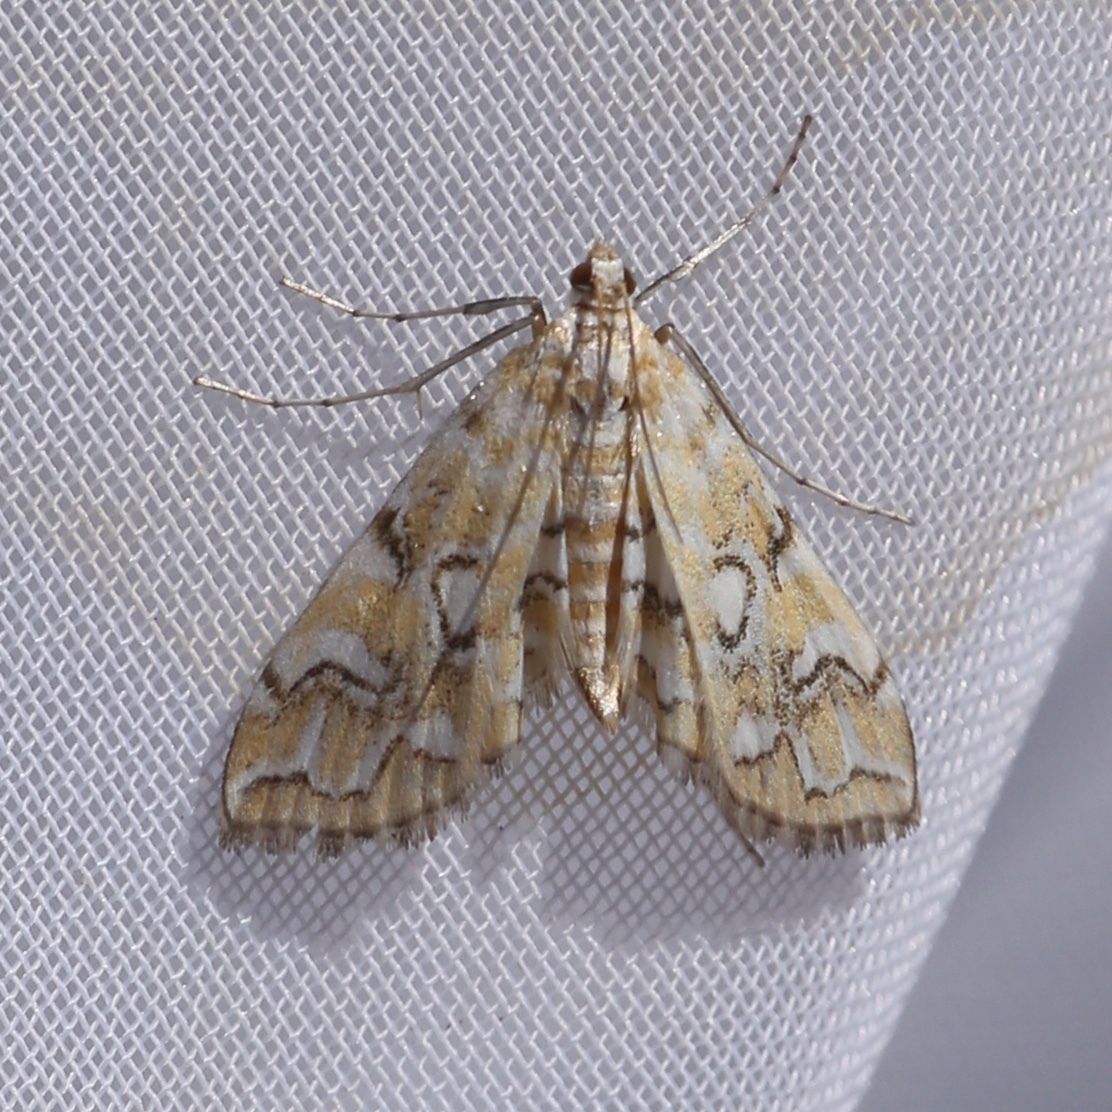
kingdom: Animalia
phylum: Arthropoda
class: Insecta
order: Lepidoptera
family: Crambidae
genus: Elophila
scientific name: Elophila icciusalis
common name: Pondside pyralid moth
